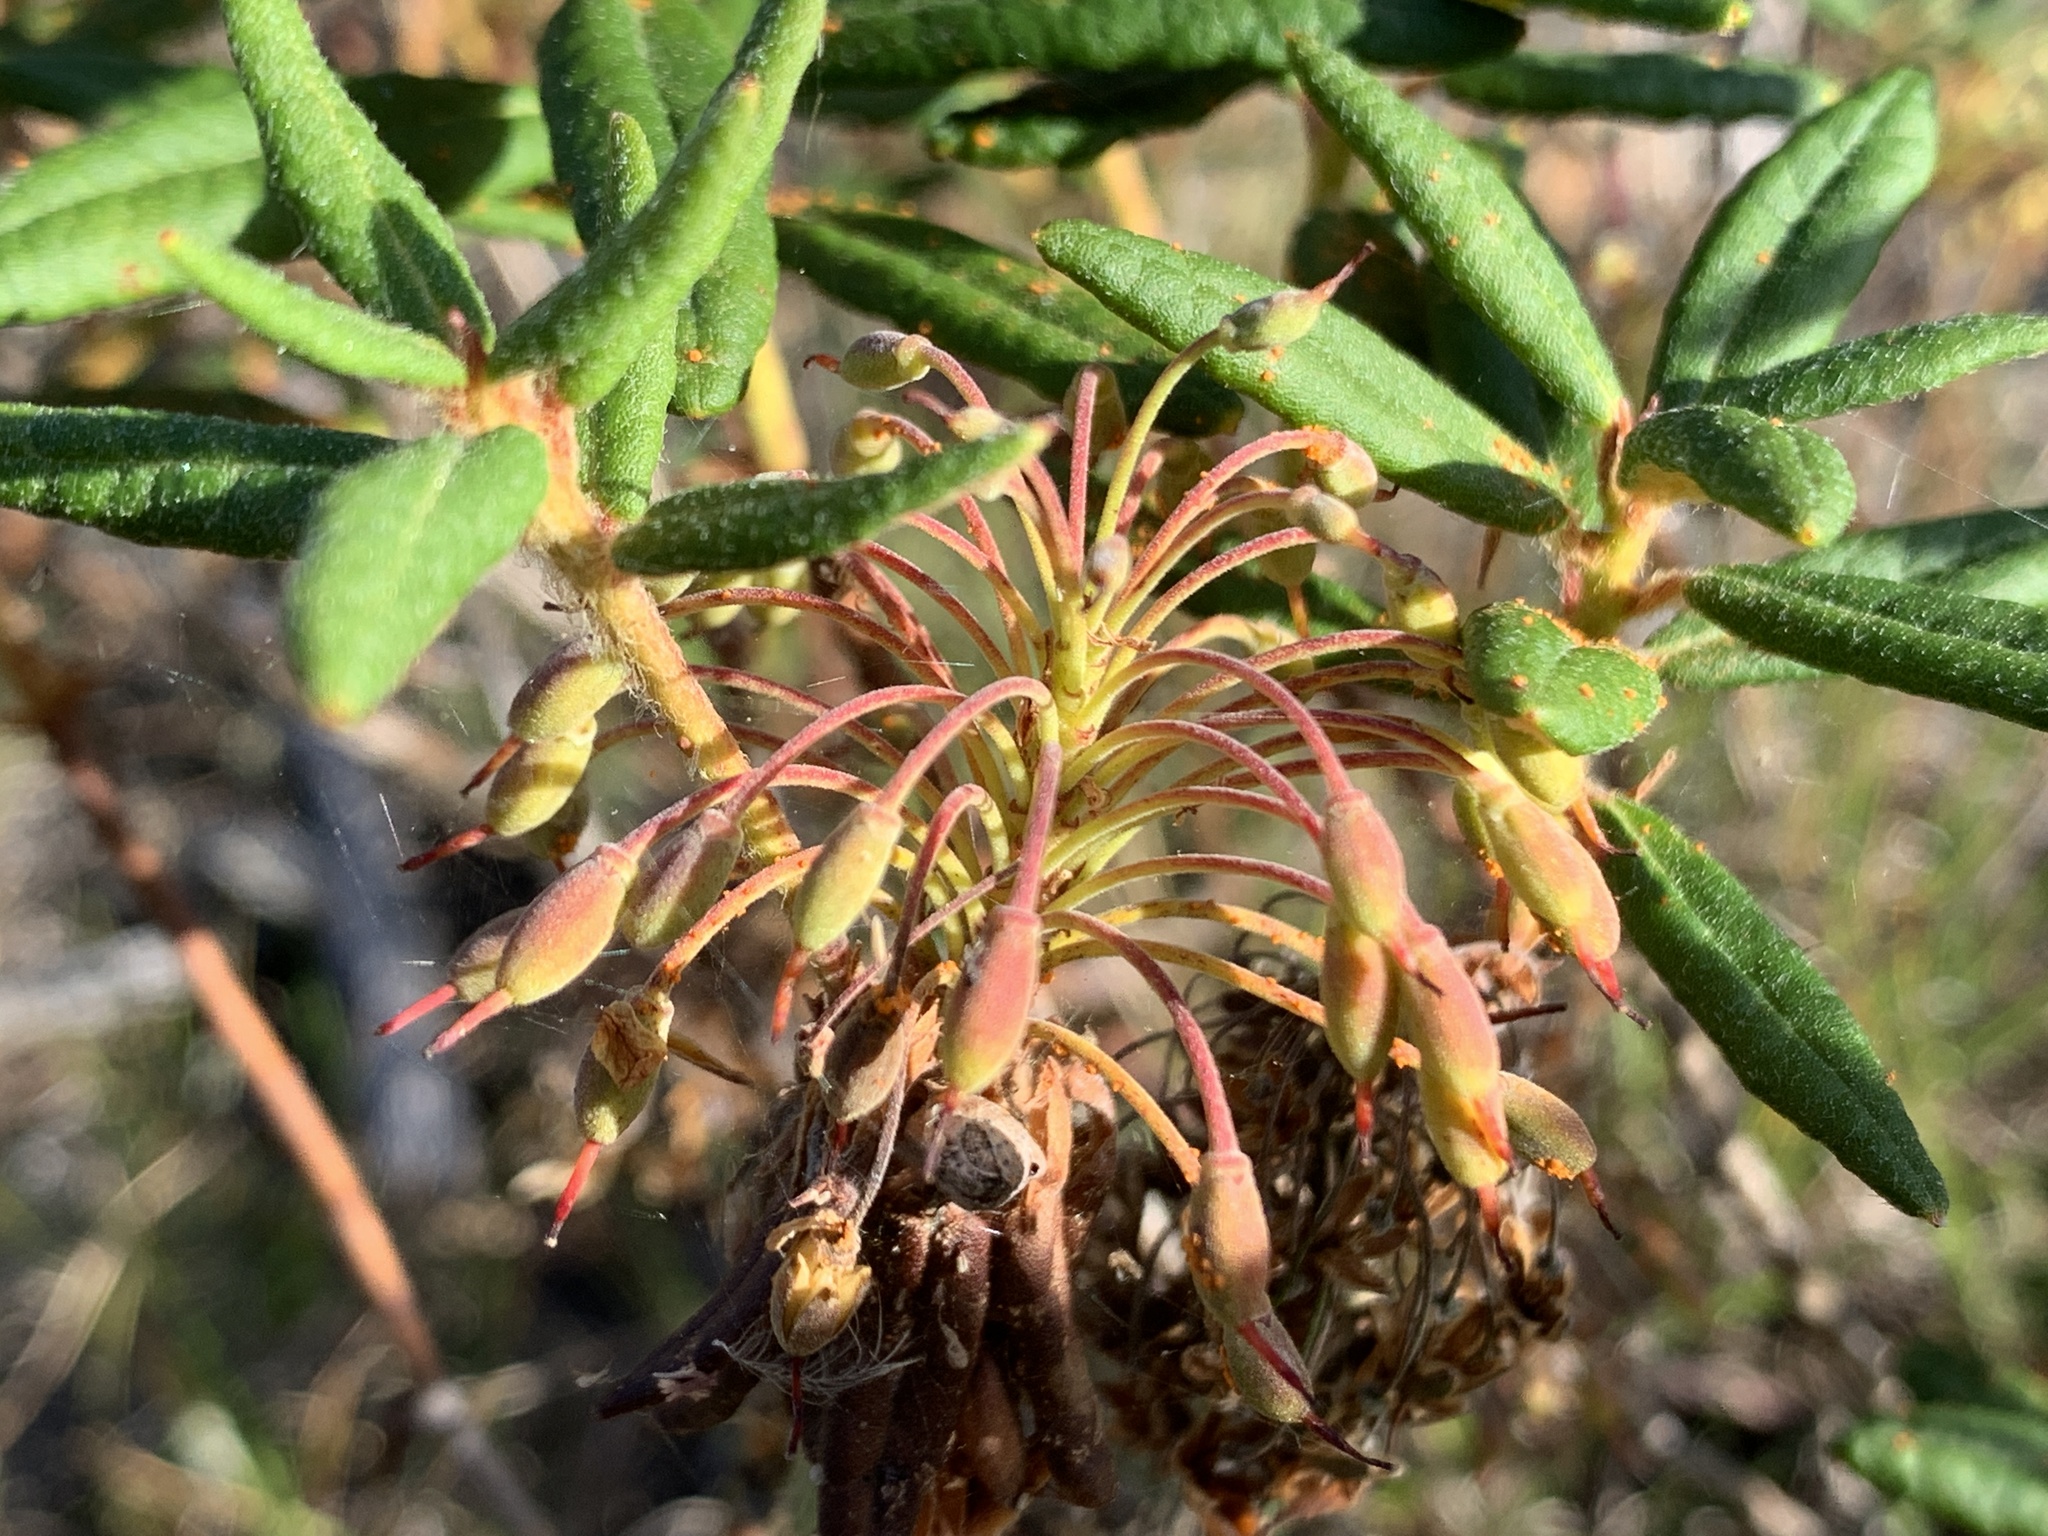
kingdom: Plantae
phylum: Tracheophyta
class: Magnoliopsida
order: Ericales
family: Ericaceae
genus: Rhododendron
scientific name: Rhododendron groenlandicum
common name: Bog labrador tea
